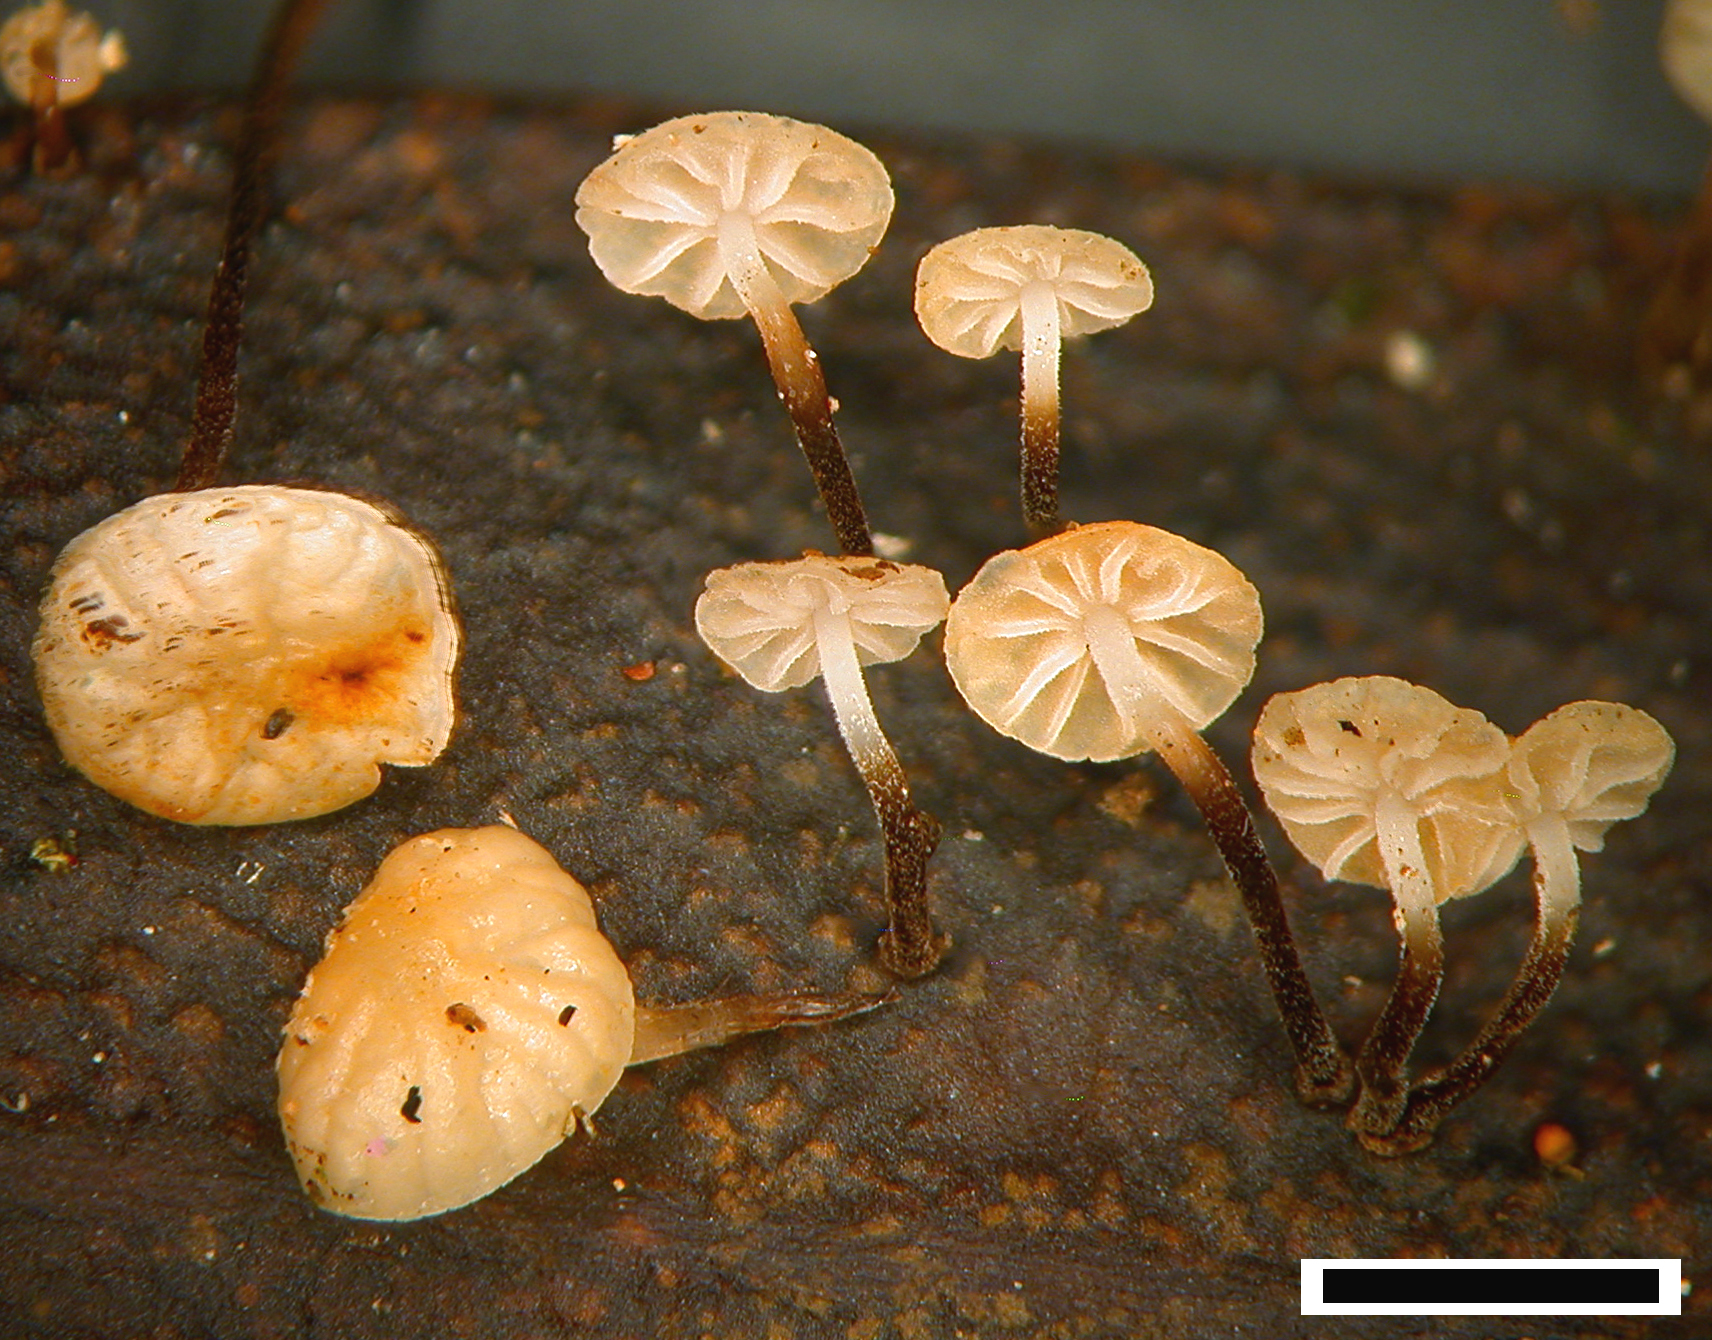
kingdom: Fungi
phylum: Basidiomycota
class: Agaricomycetes
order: Agaricales
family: Physalacriaceae
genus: Gloiocephala
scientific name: Gloiocephala xanthocephala
